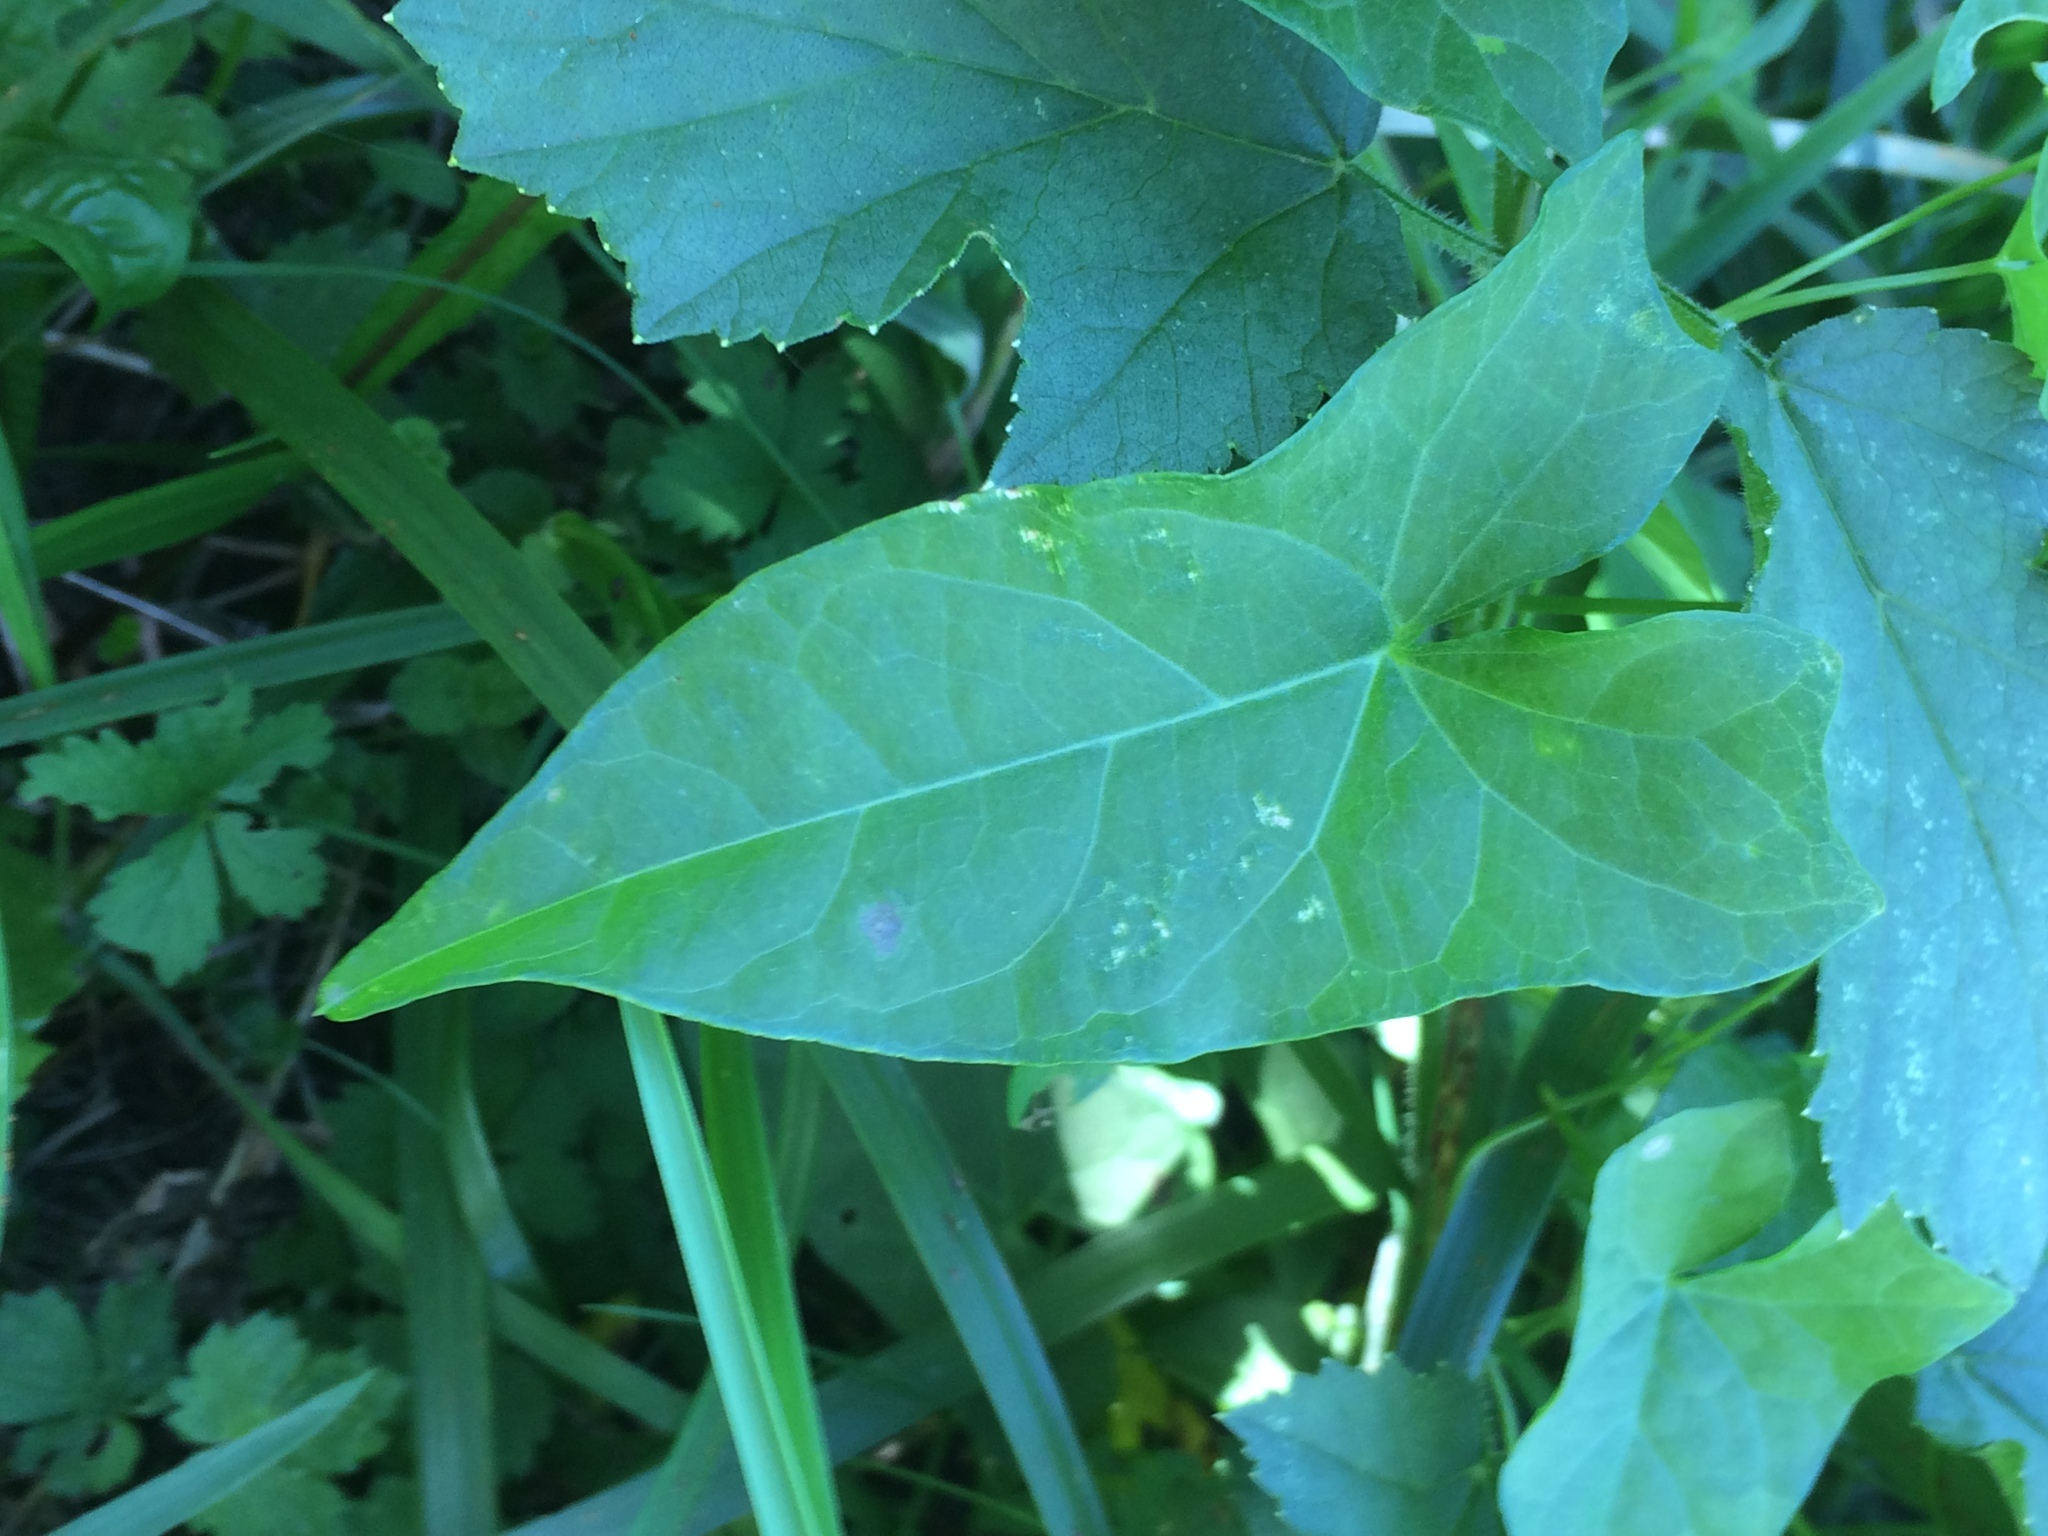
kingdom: Plantae
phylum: Tracheophyta
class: Magnoliopsida
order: Solanales
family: Convolvulaceae
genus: Calystegia
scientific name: Calystegia sepium
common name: Hedge bindweed
